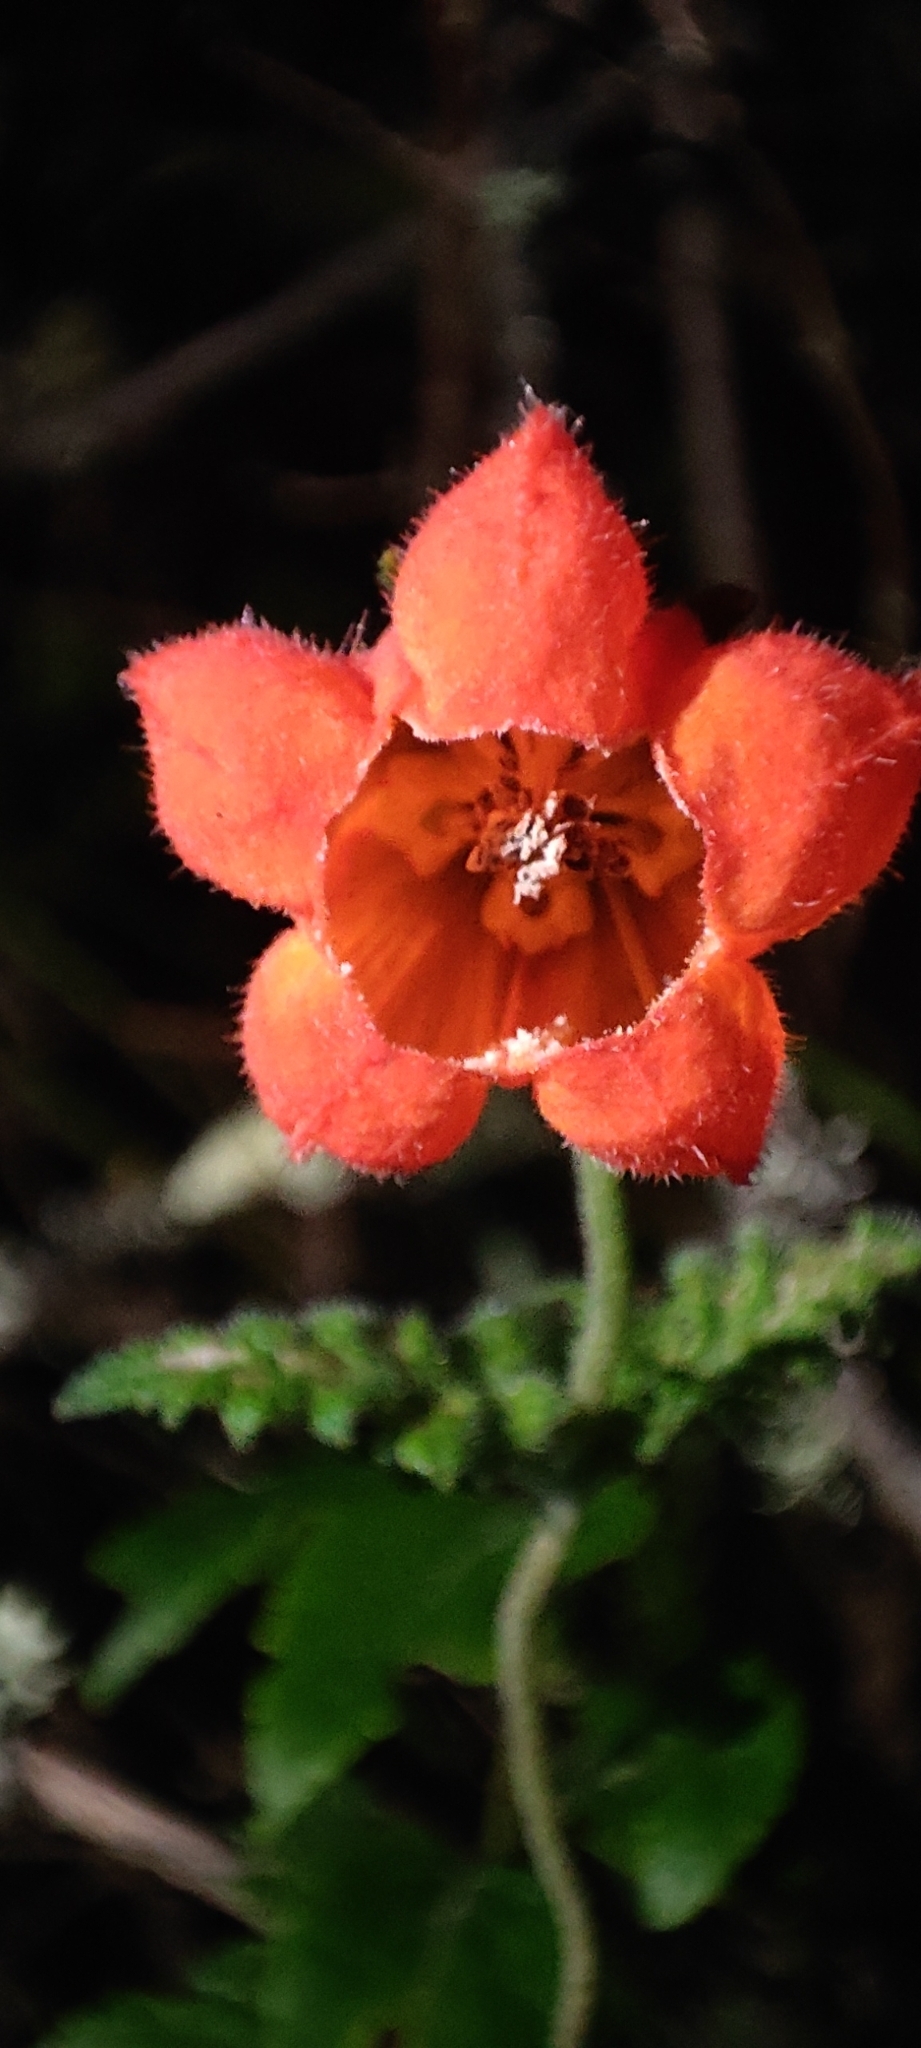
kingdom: Plantae
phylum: Tracheophyta
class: Magnoliopsida
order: Cornales
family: Loasaceae
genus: Caiophora
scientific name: Caiophora contorta
